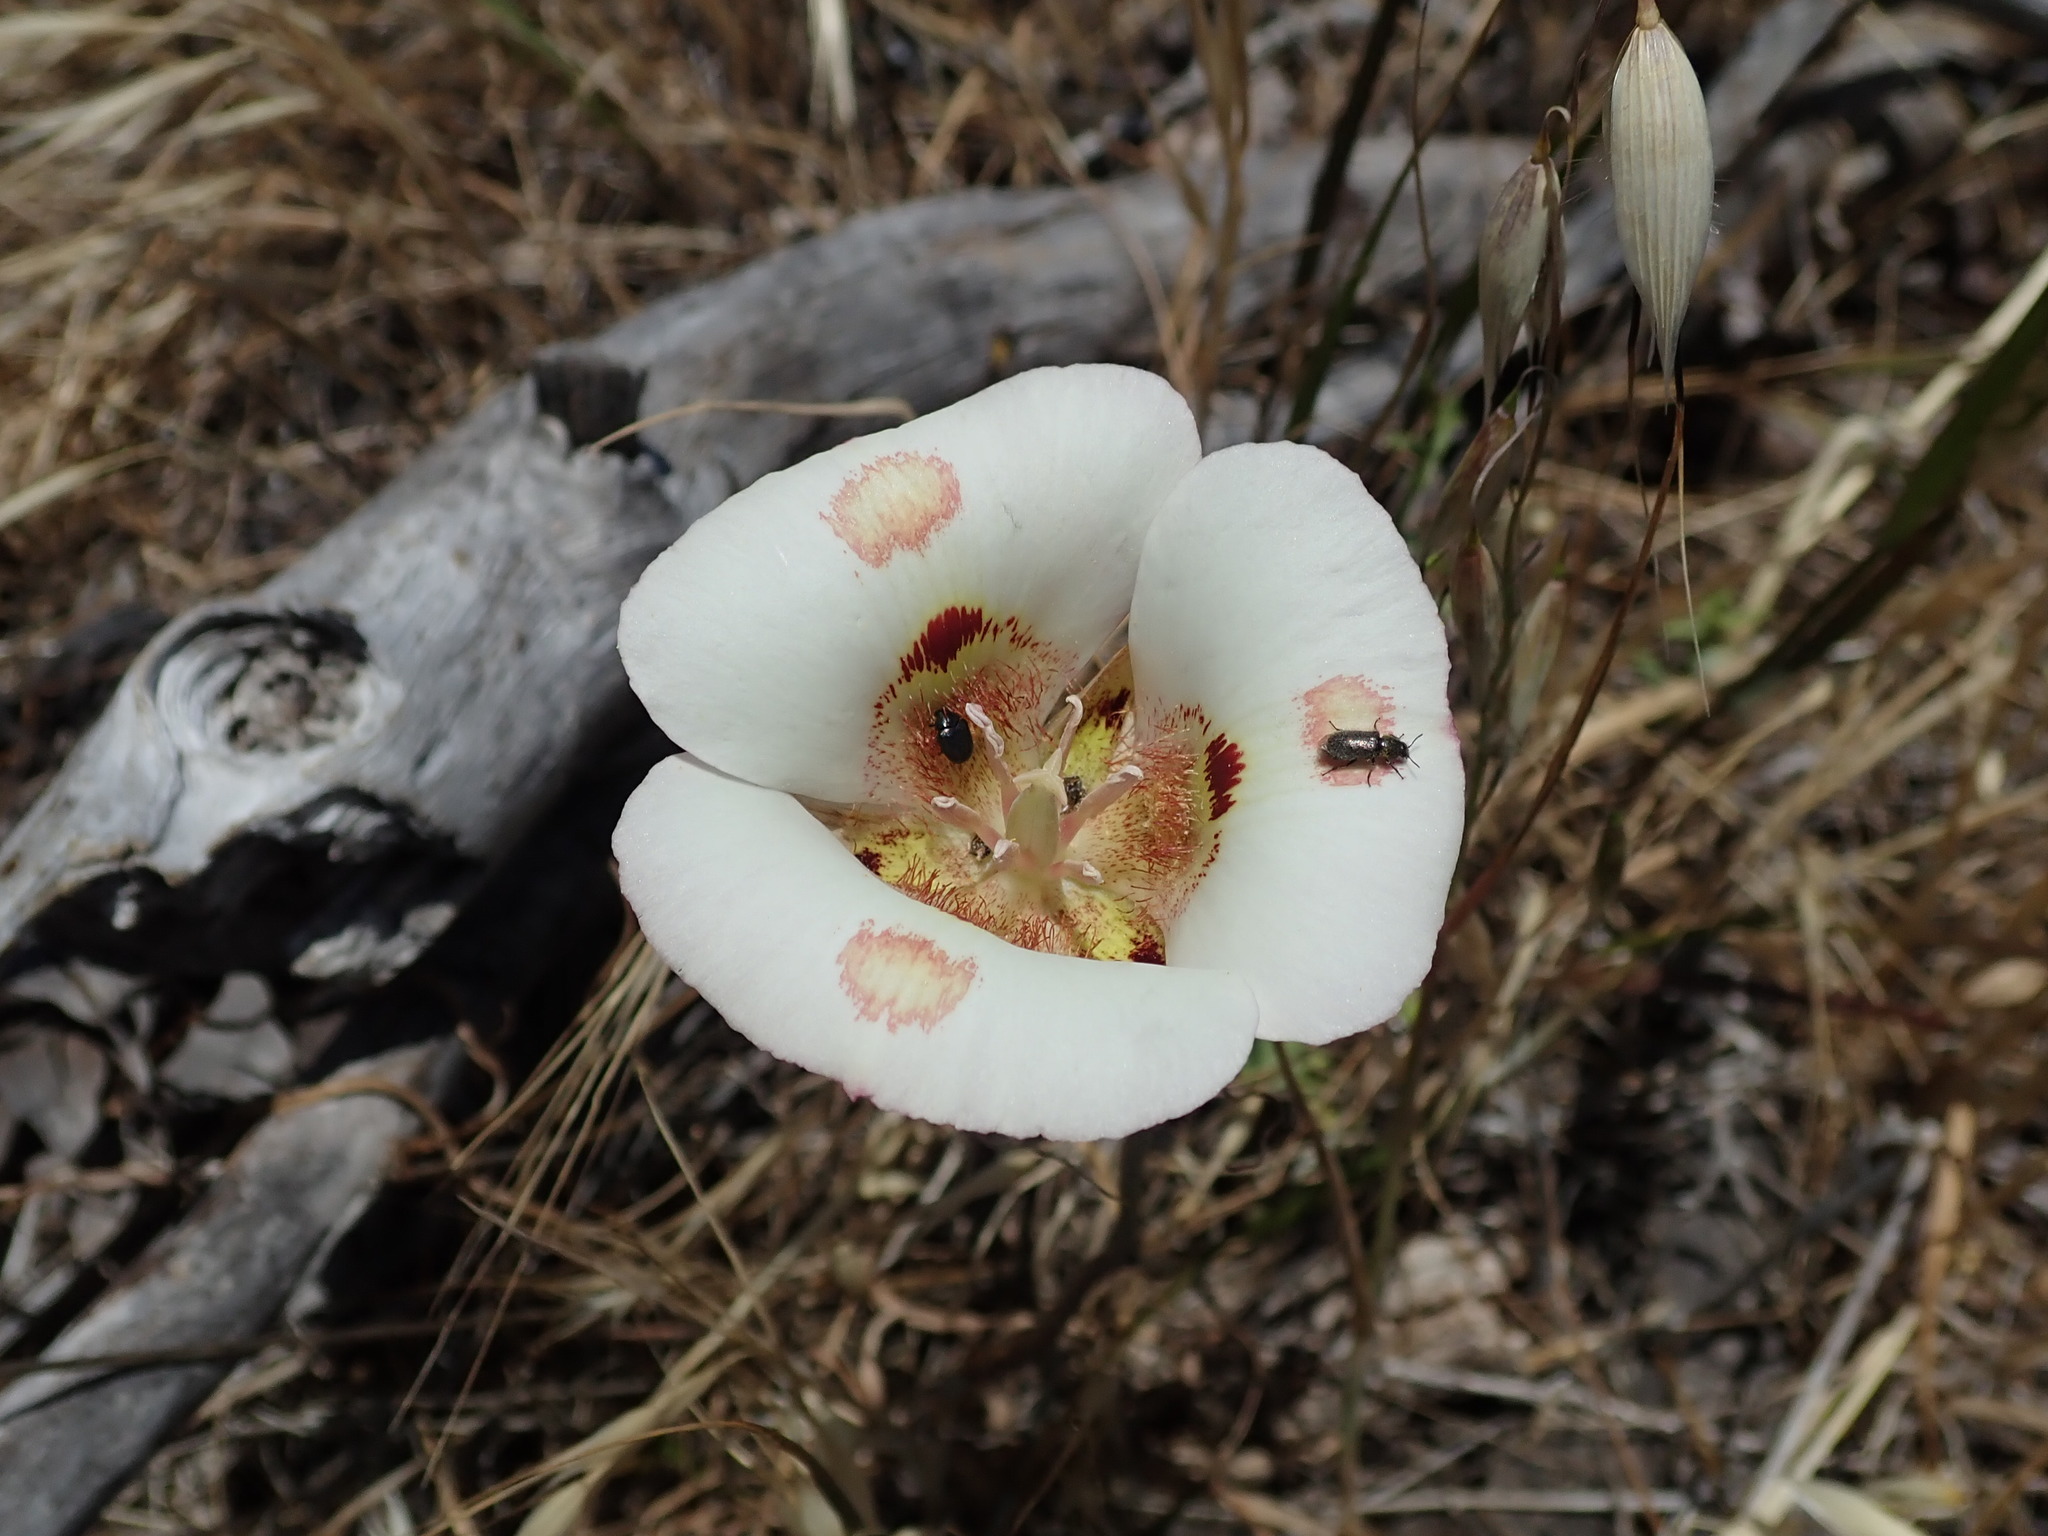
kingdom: Plantae
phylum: Tracheophyta
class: Liliopsida
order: Liliales
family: Liliaceae
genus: Calochortus
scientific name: Calochortus venustus
